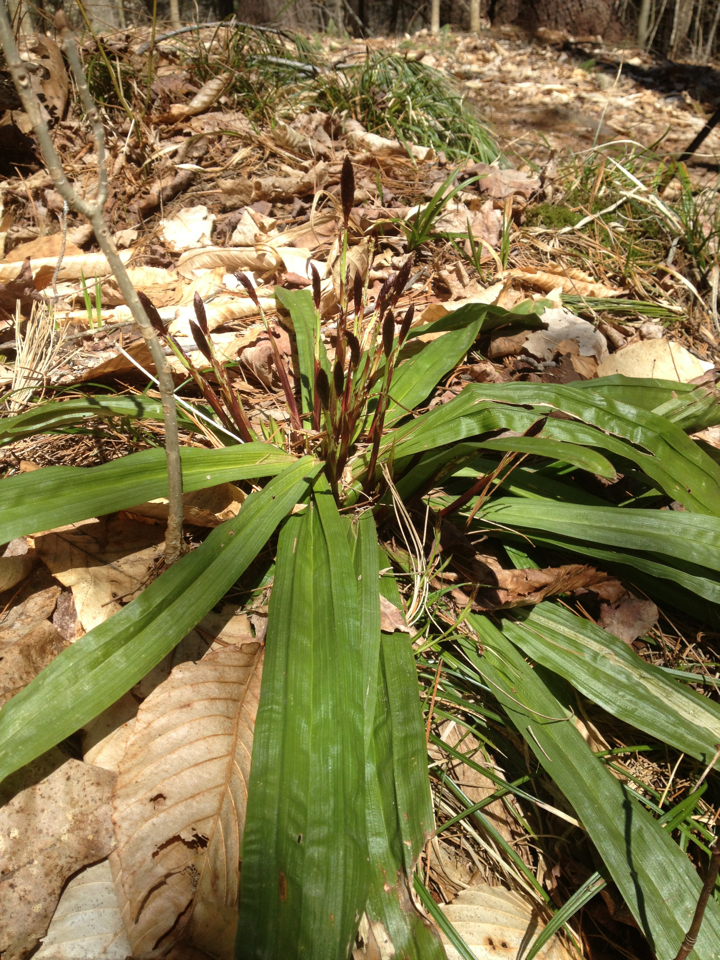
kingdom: Plantae
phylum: Tracheophyta
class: Liliopsida
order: Poales
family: Cyperaceae
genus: Carex
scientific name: Carex plantaginea
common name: Plantain-leaved sedge
